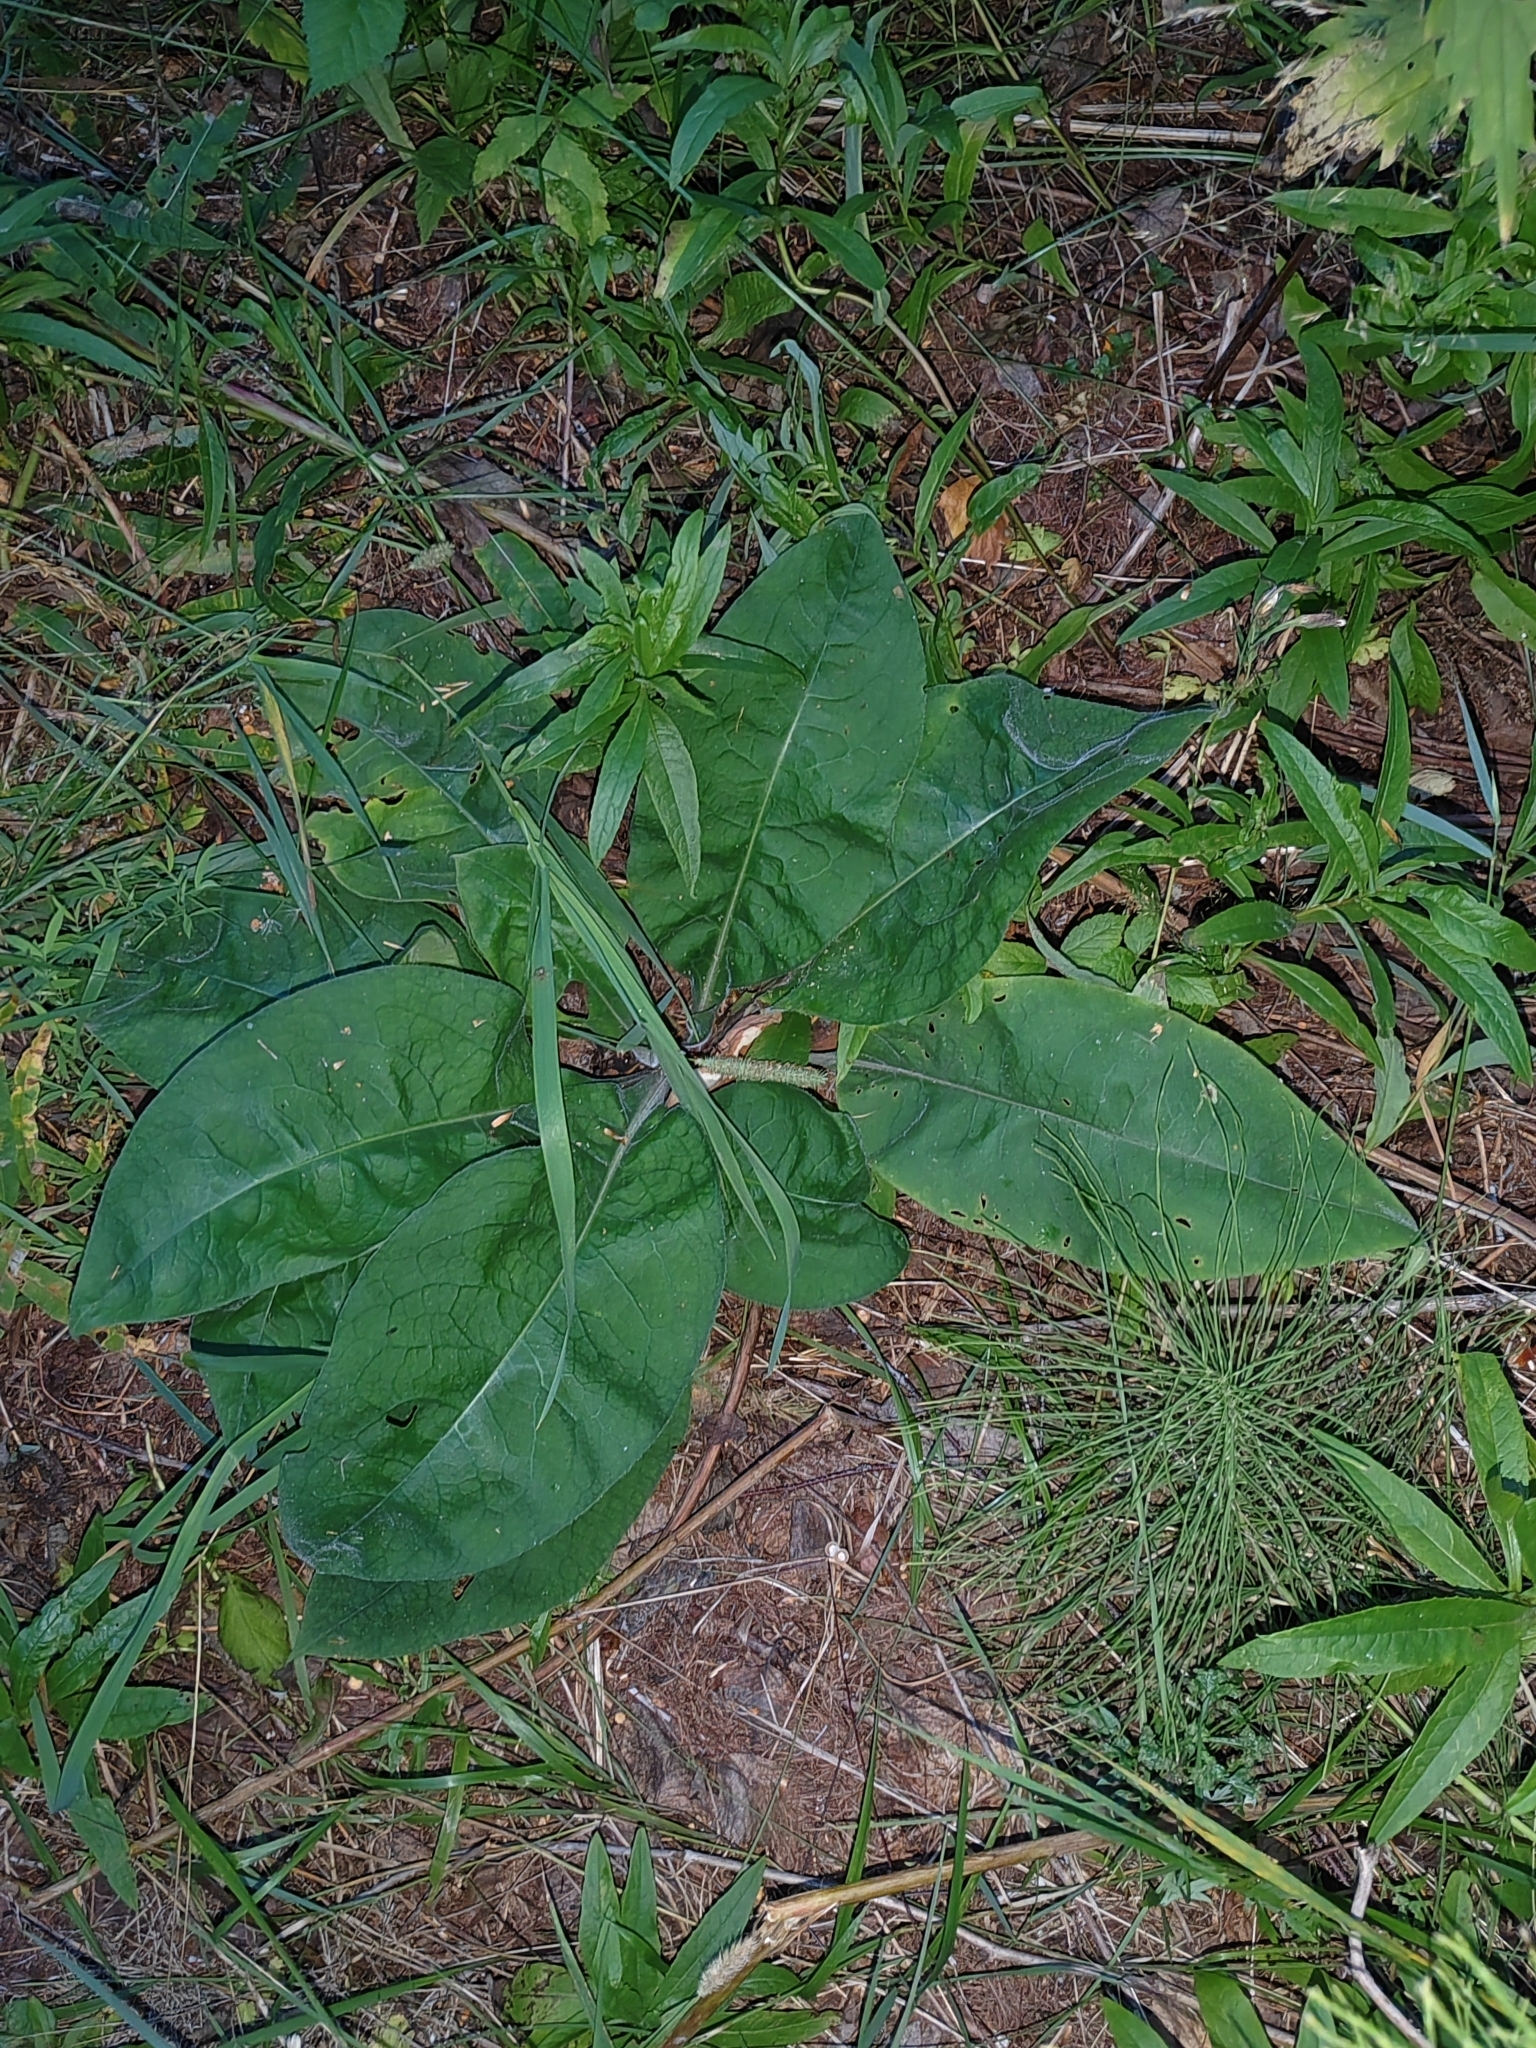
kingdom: Plantae
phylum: Tracheophyta
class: Magnoliopsida
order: Boraginales
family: Boraginaceae
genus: Pulmonaria
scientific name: Pulmonaria mollis
